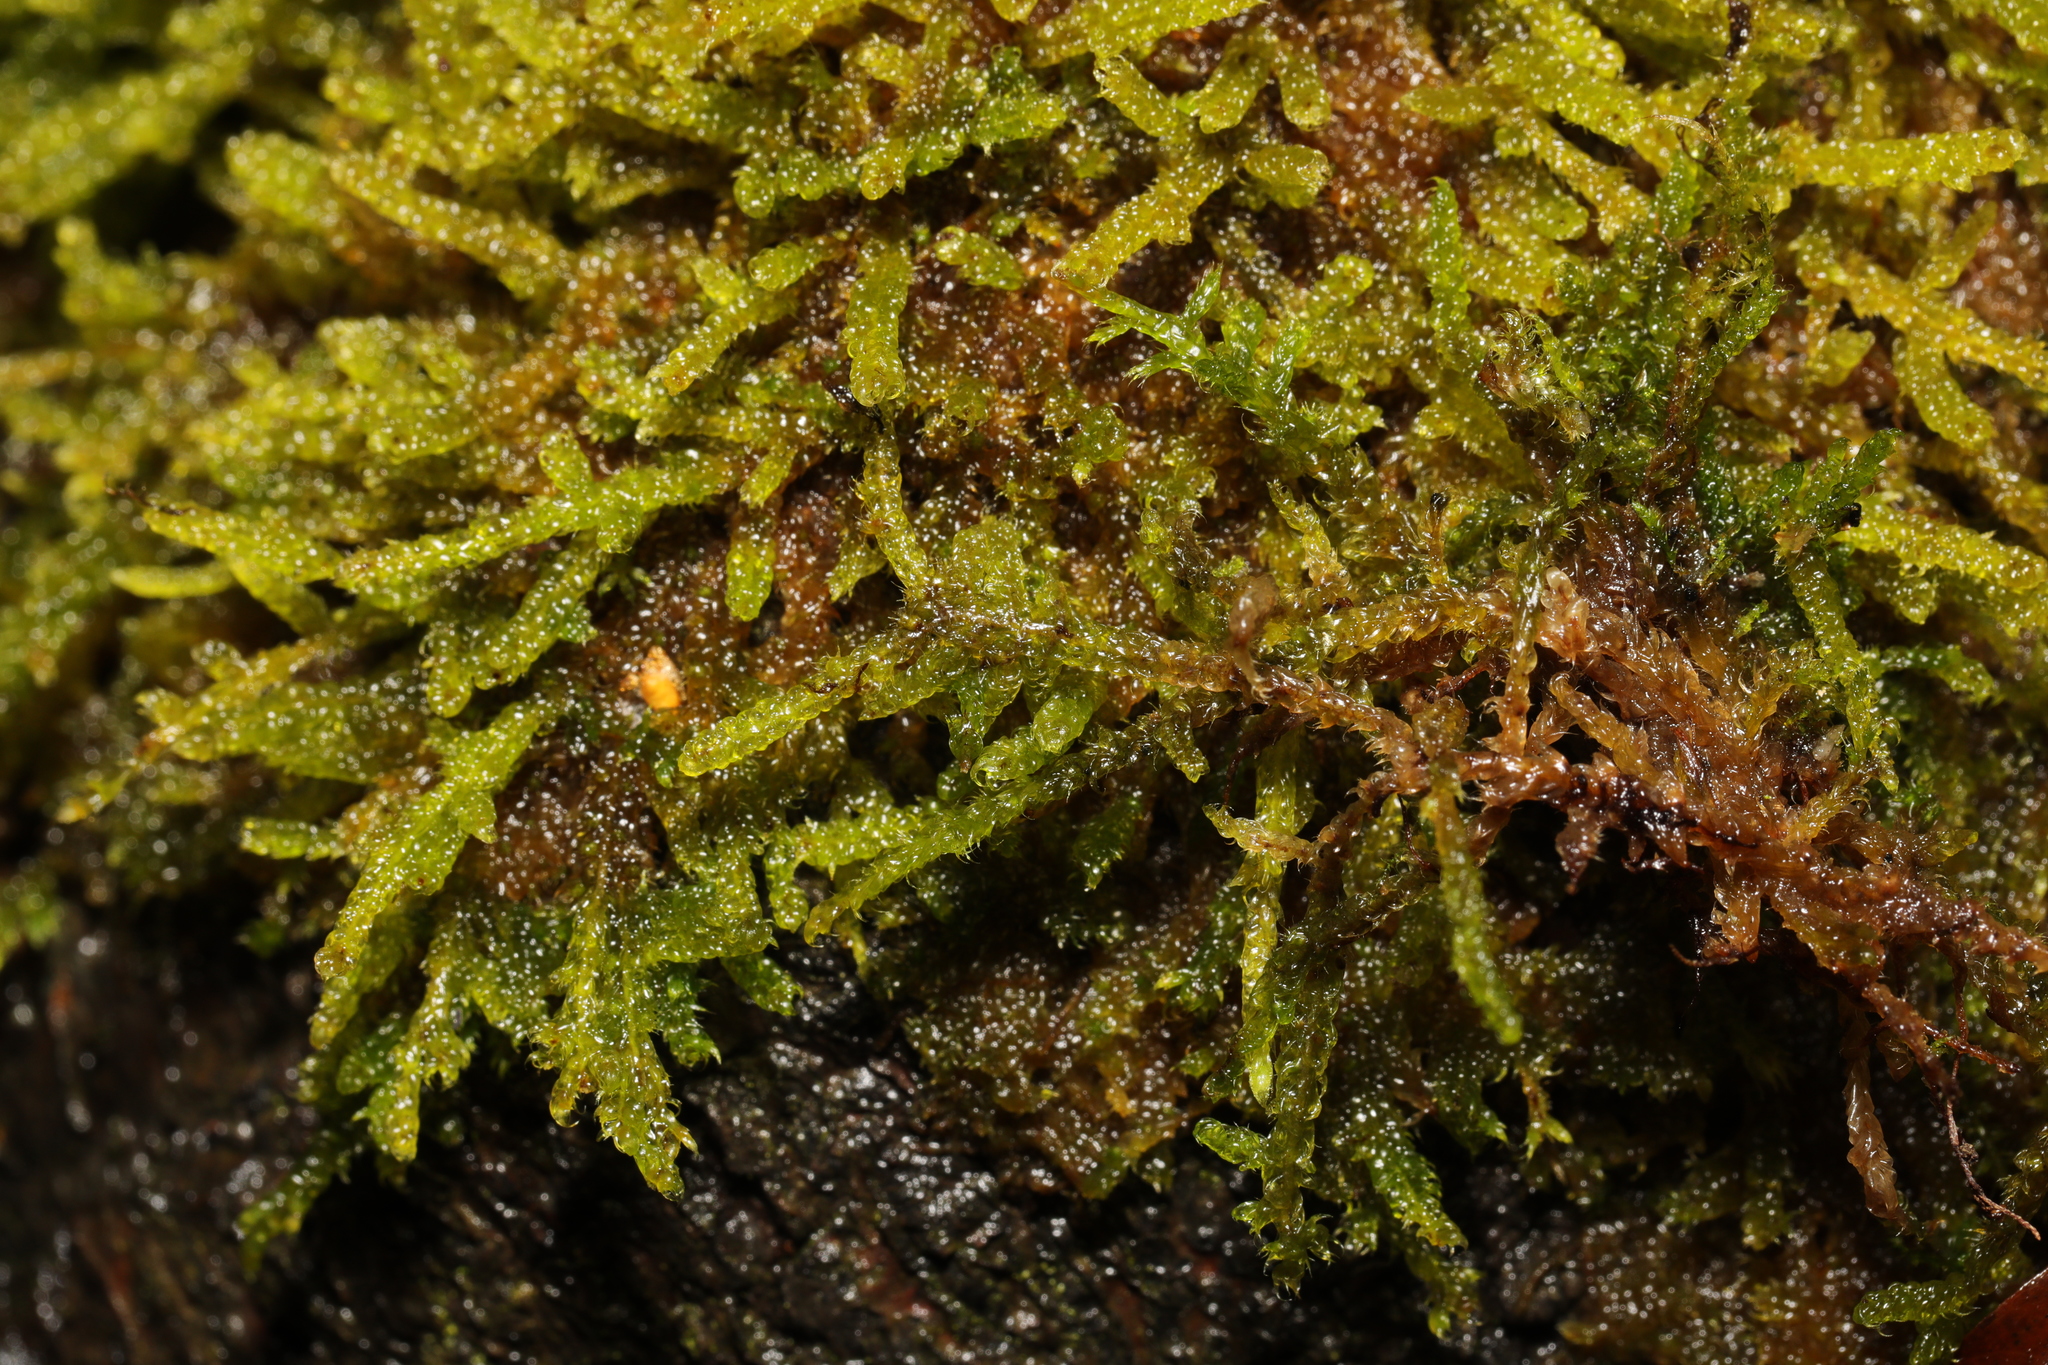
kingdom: Plantae
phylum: Bryophyta
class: Bryopsida
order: Hypnales
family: Hypnaceae
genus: Hypnum
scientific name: Hypnum cupressiforme
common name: Cypress-leaved plait-moss
